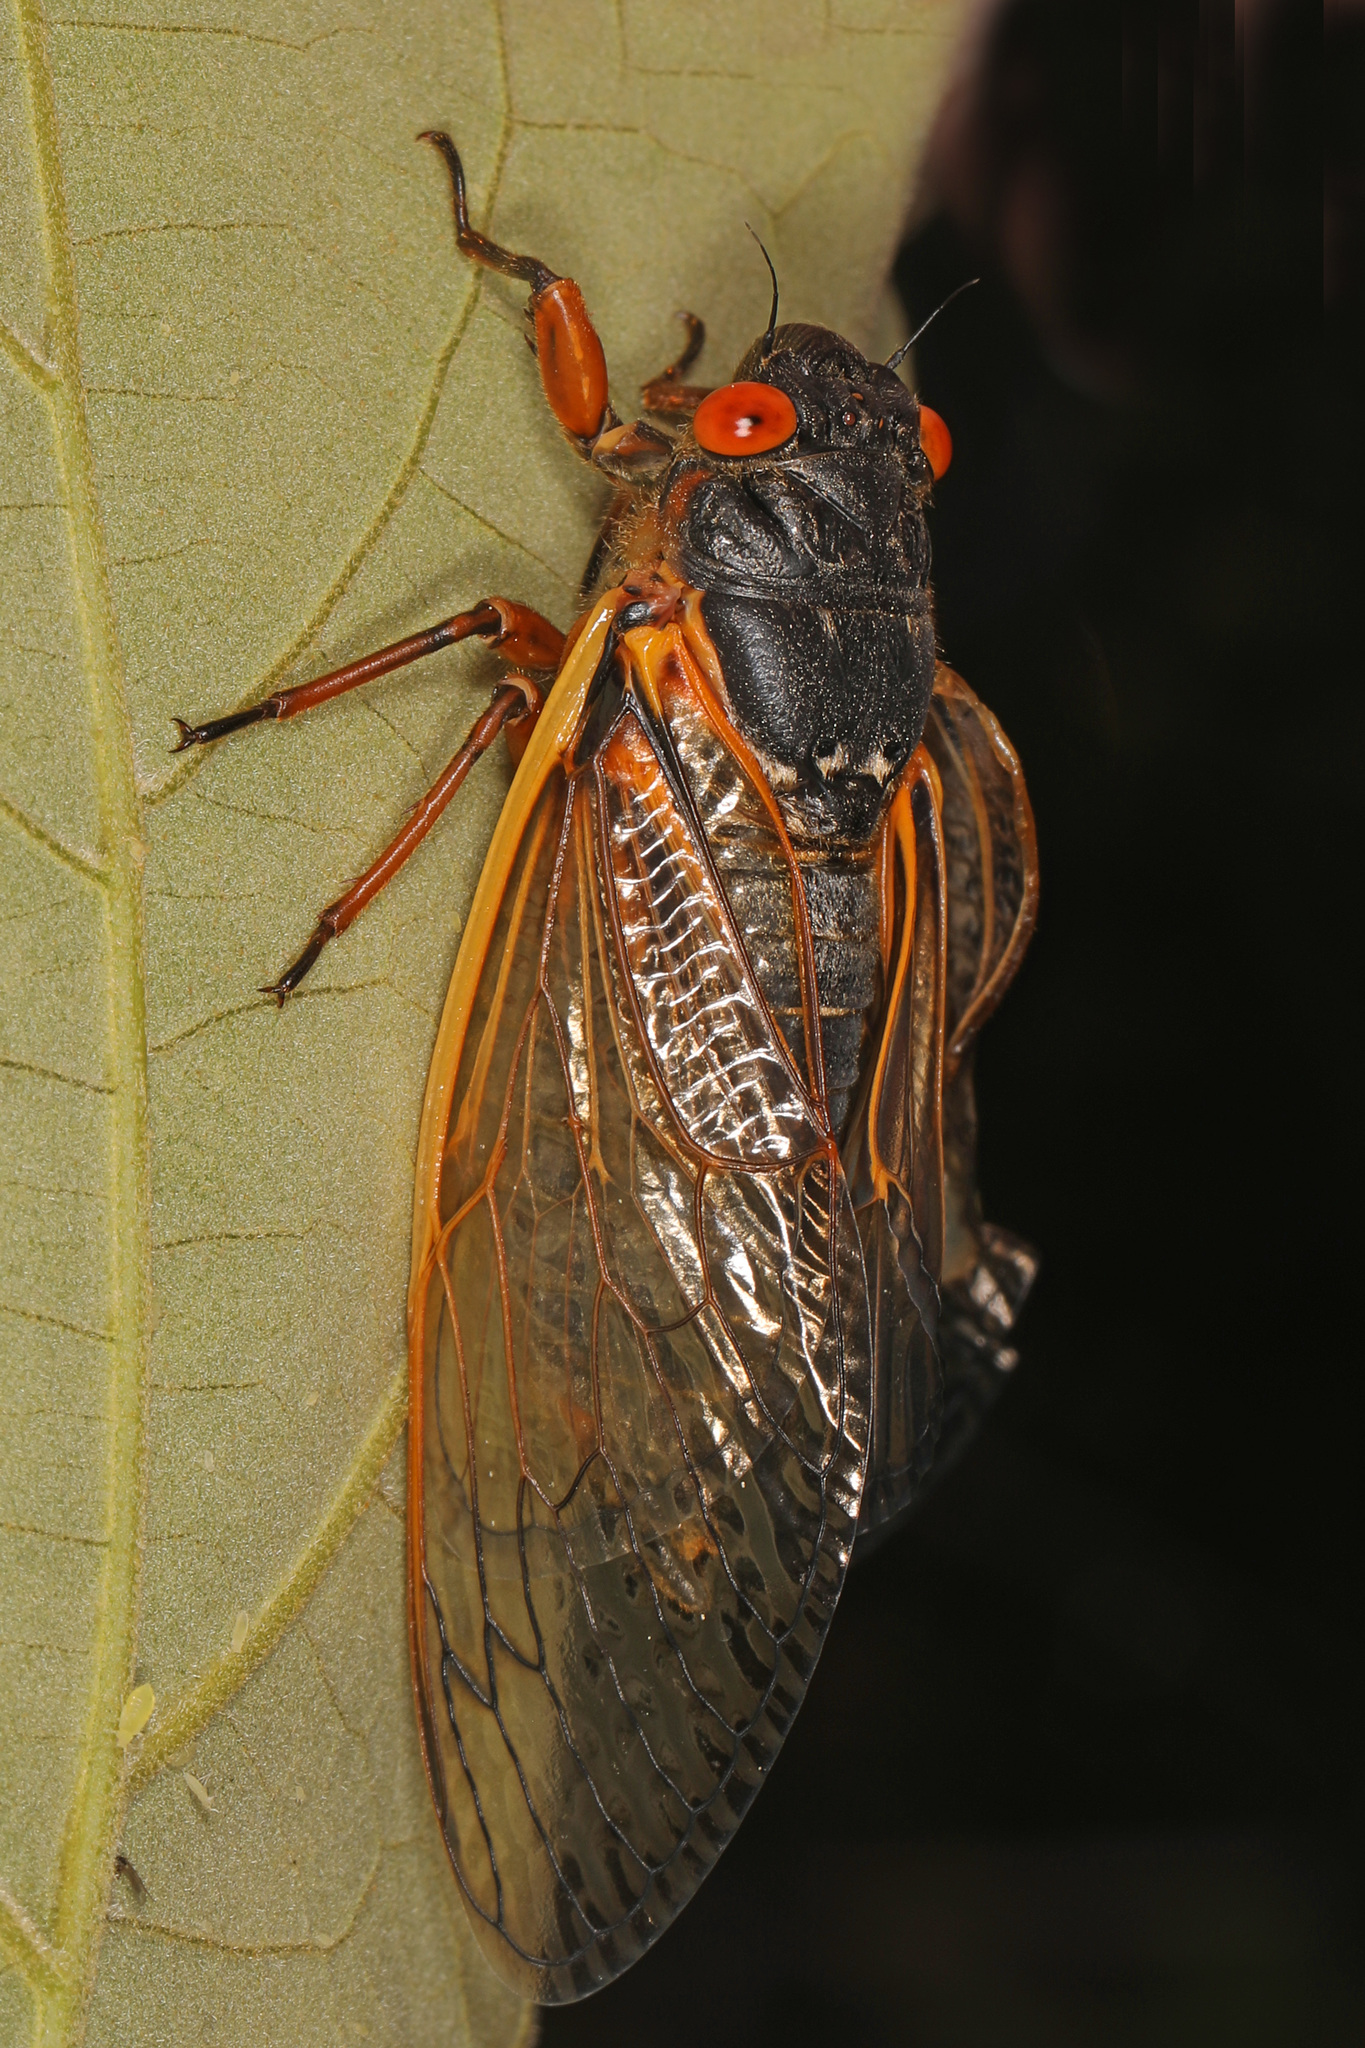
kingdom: Animalia
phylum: Arthropoda
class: Insecta
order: Hemiptera
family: Cicadidae
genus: Magicicada
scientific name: Magicicada septendecim
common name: Periodical cicada
